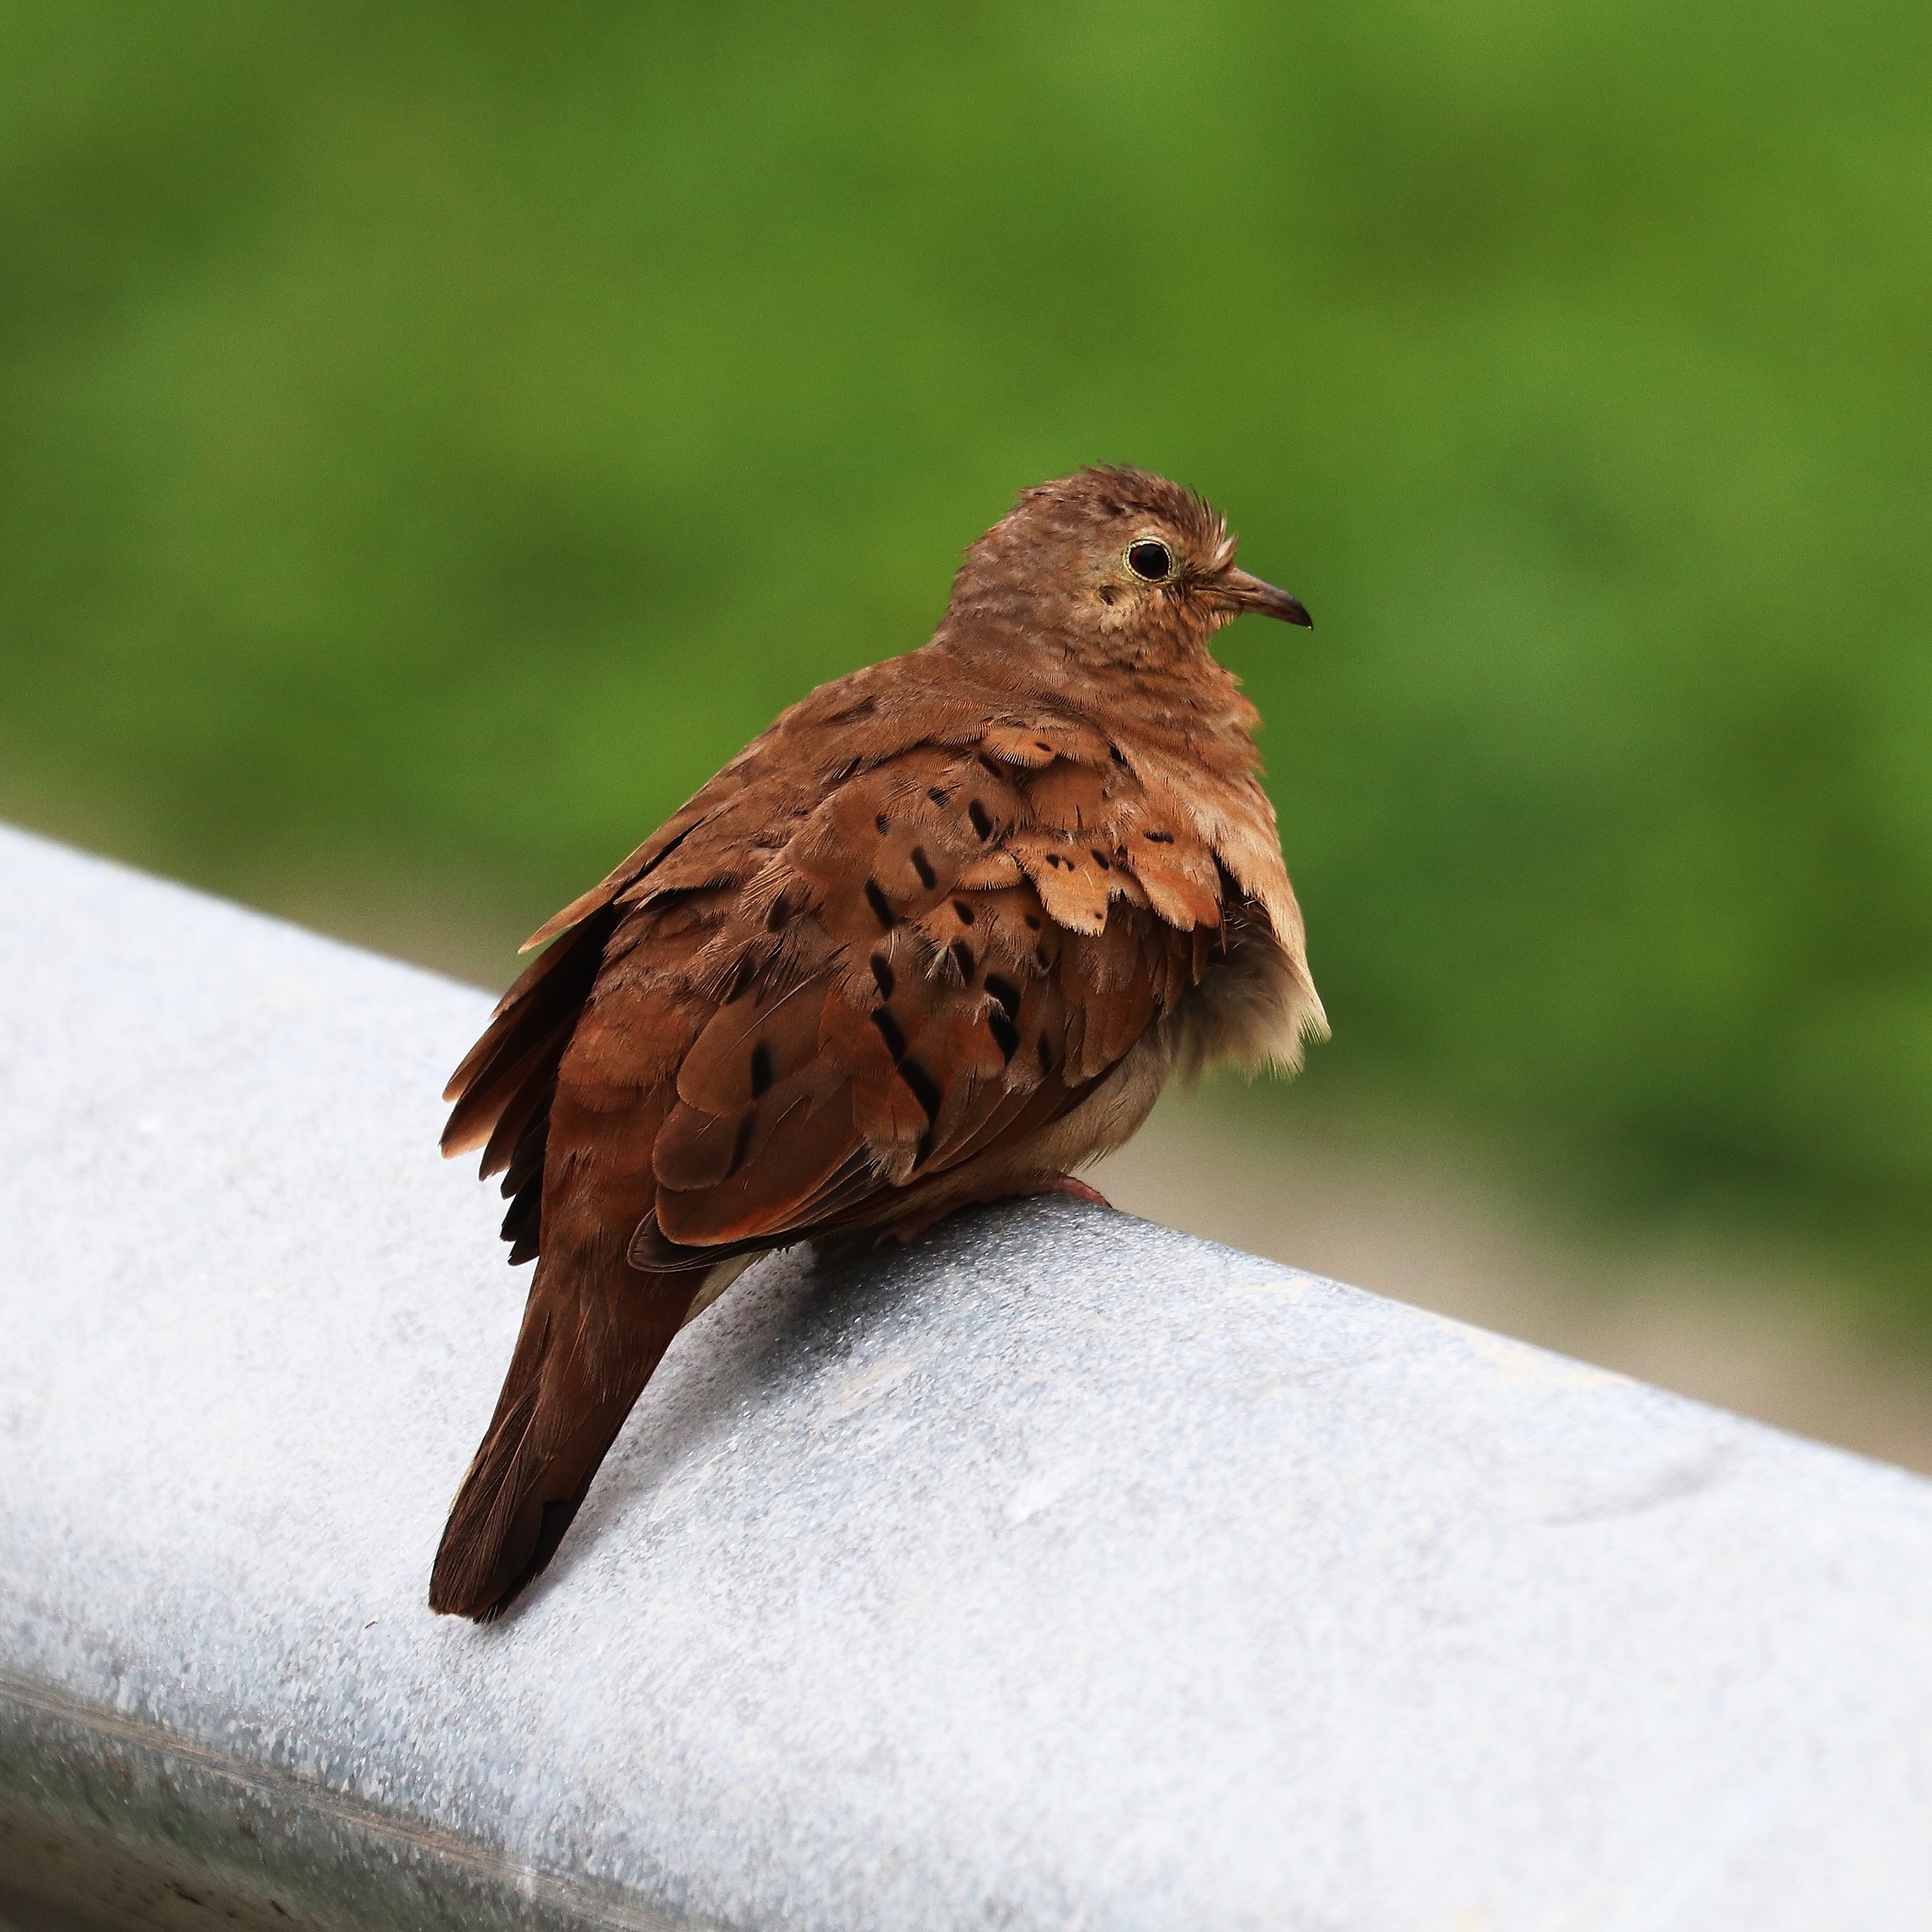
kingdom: Animalia
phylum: Chordata
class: Aves
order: Columbiformes
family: Columbidae
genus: Columbina
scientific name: Columbina talpacoti
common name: Ruddy ground dove
